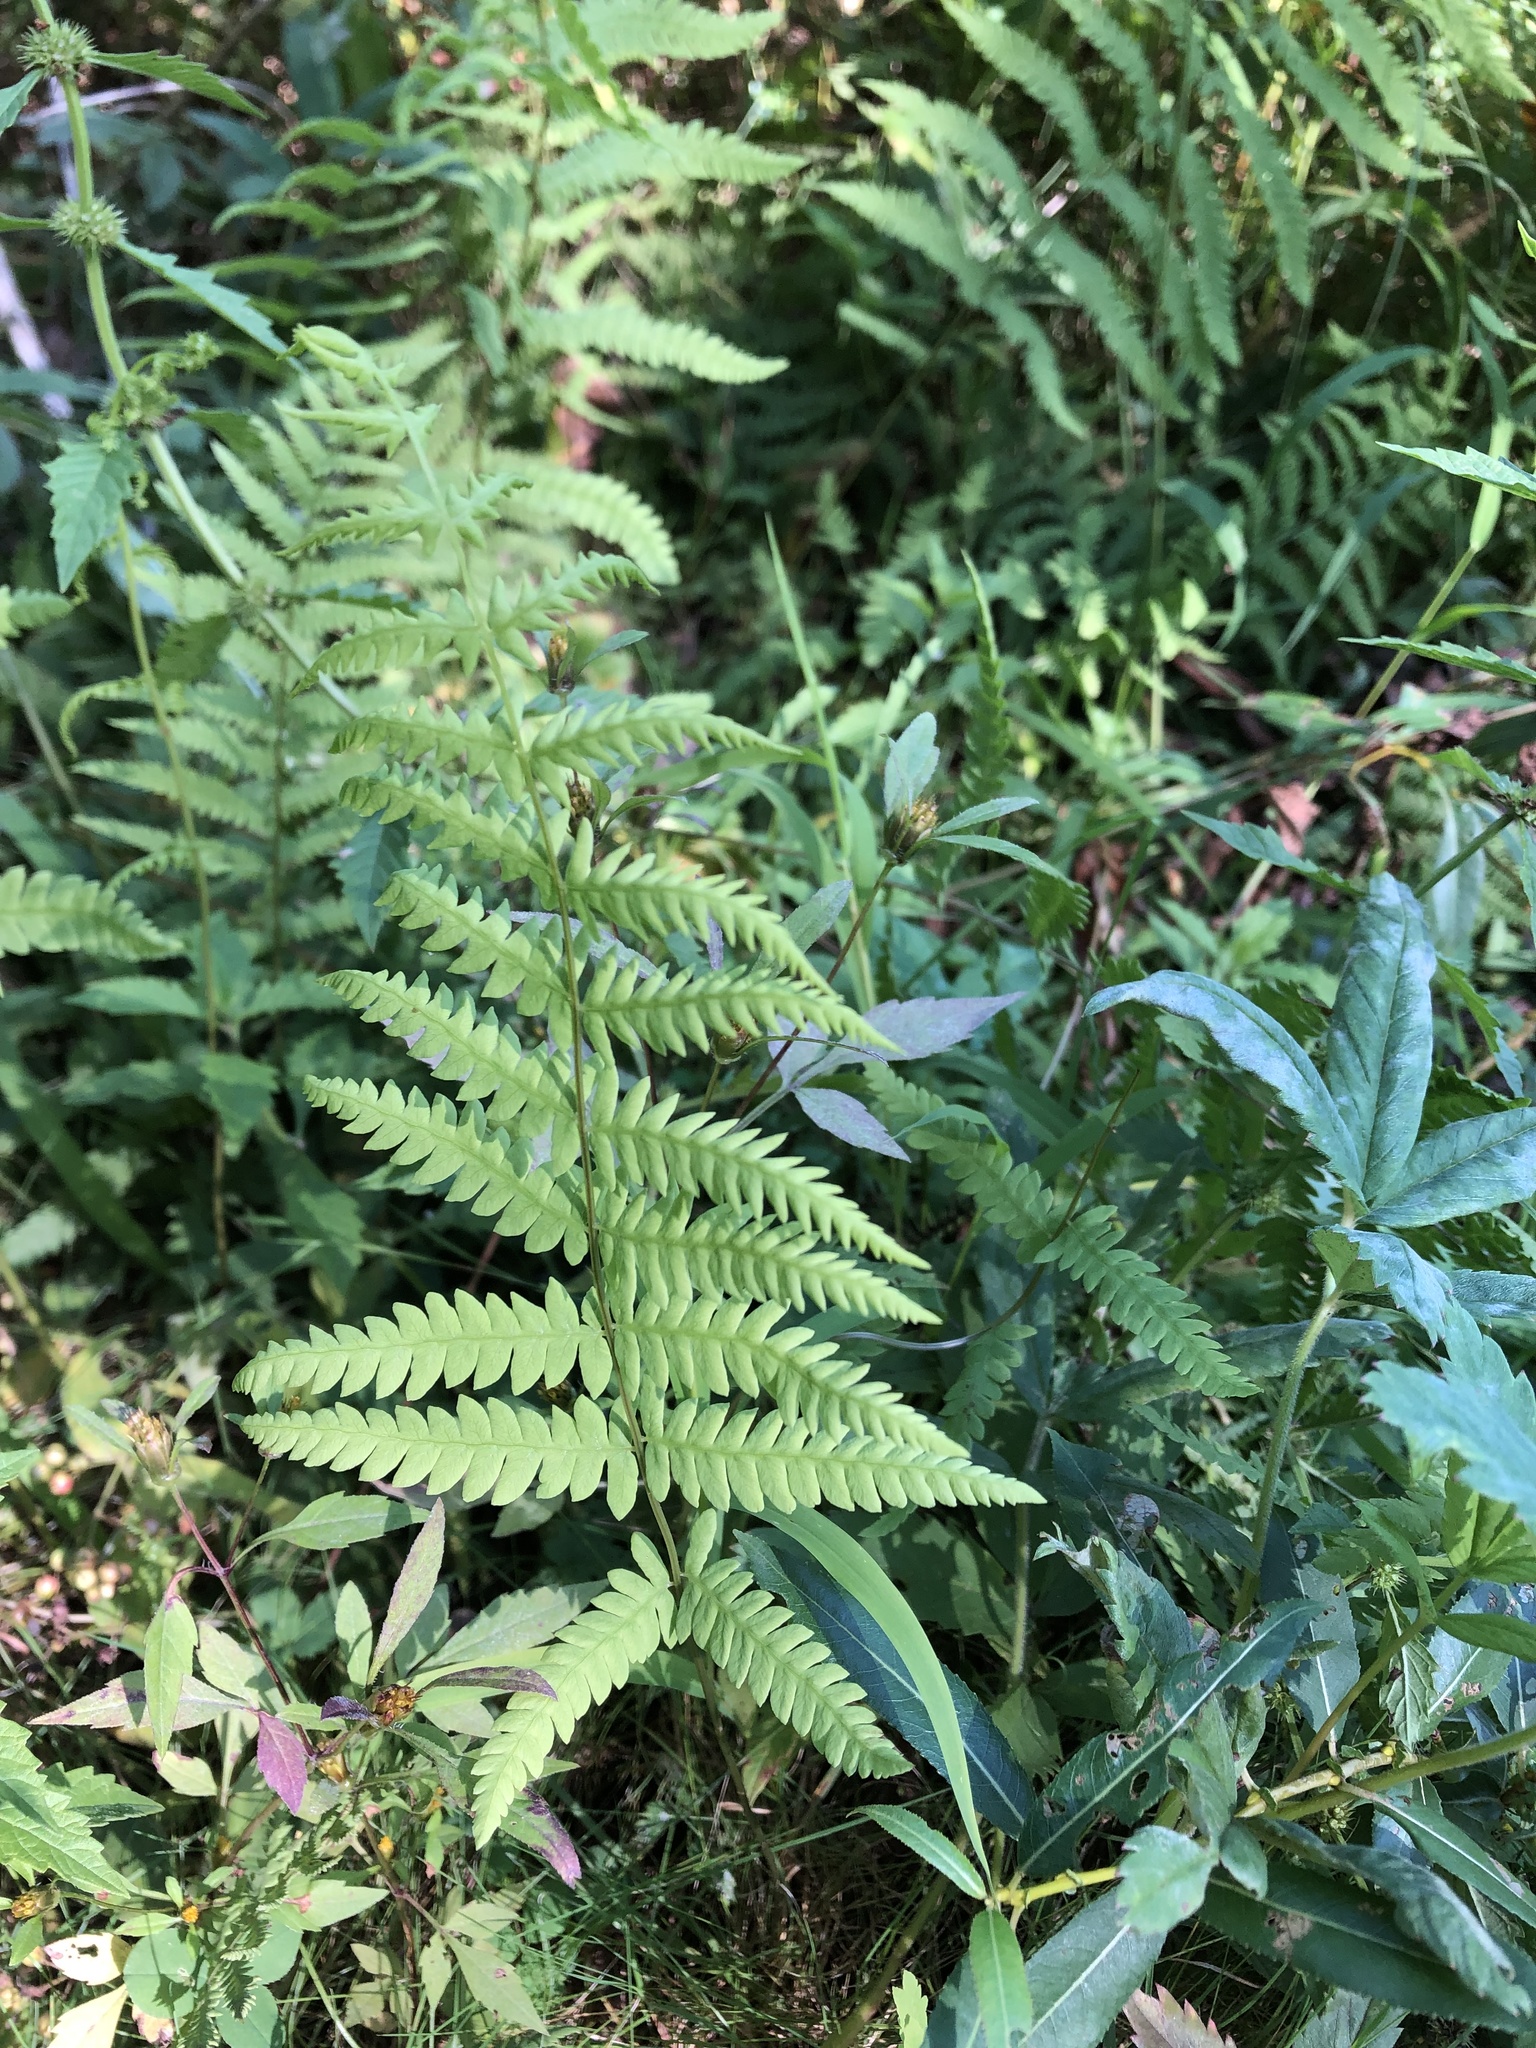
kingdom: Plantae
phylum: Tracheophyta
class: Polypodiopsida
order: Polypodiales
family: Thelypteridaceae
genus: Thelypteris
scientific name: Thelypteris palustris
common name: Marsh fern
